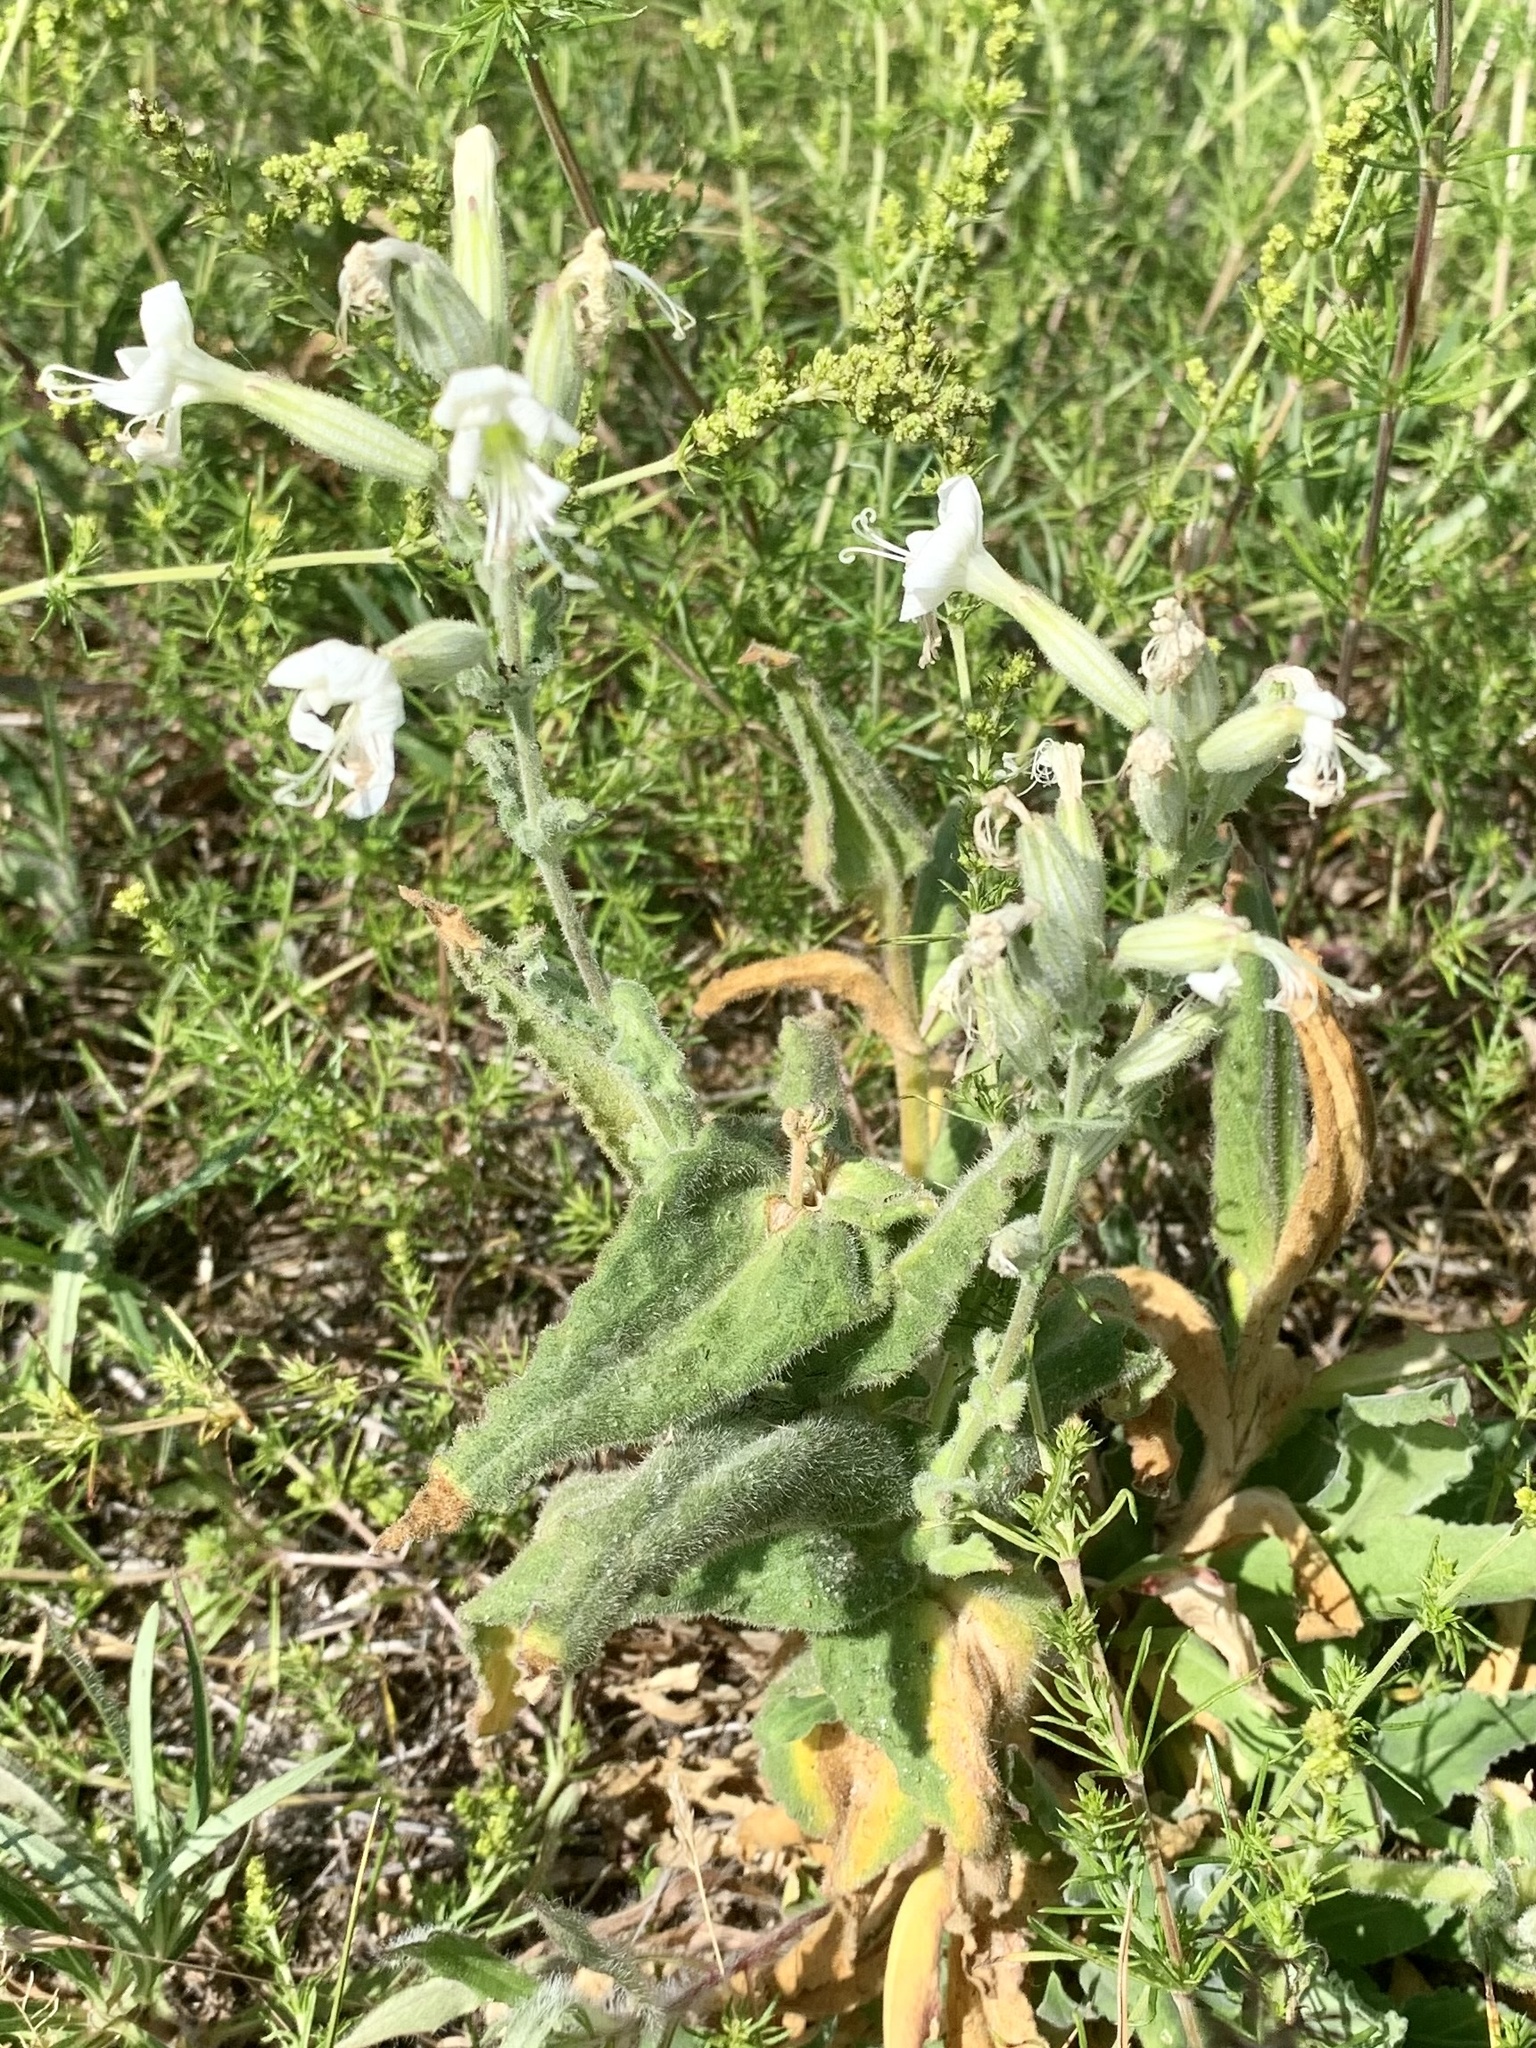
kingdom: Plantae
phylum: Tracheophyta
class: Magnoliopsida
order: Caryophyllales
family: Caryophyllaceae
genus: Silene
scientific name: Silene viscosa
